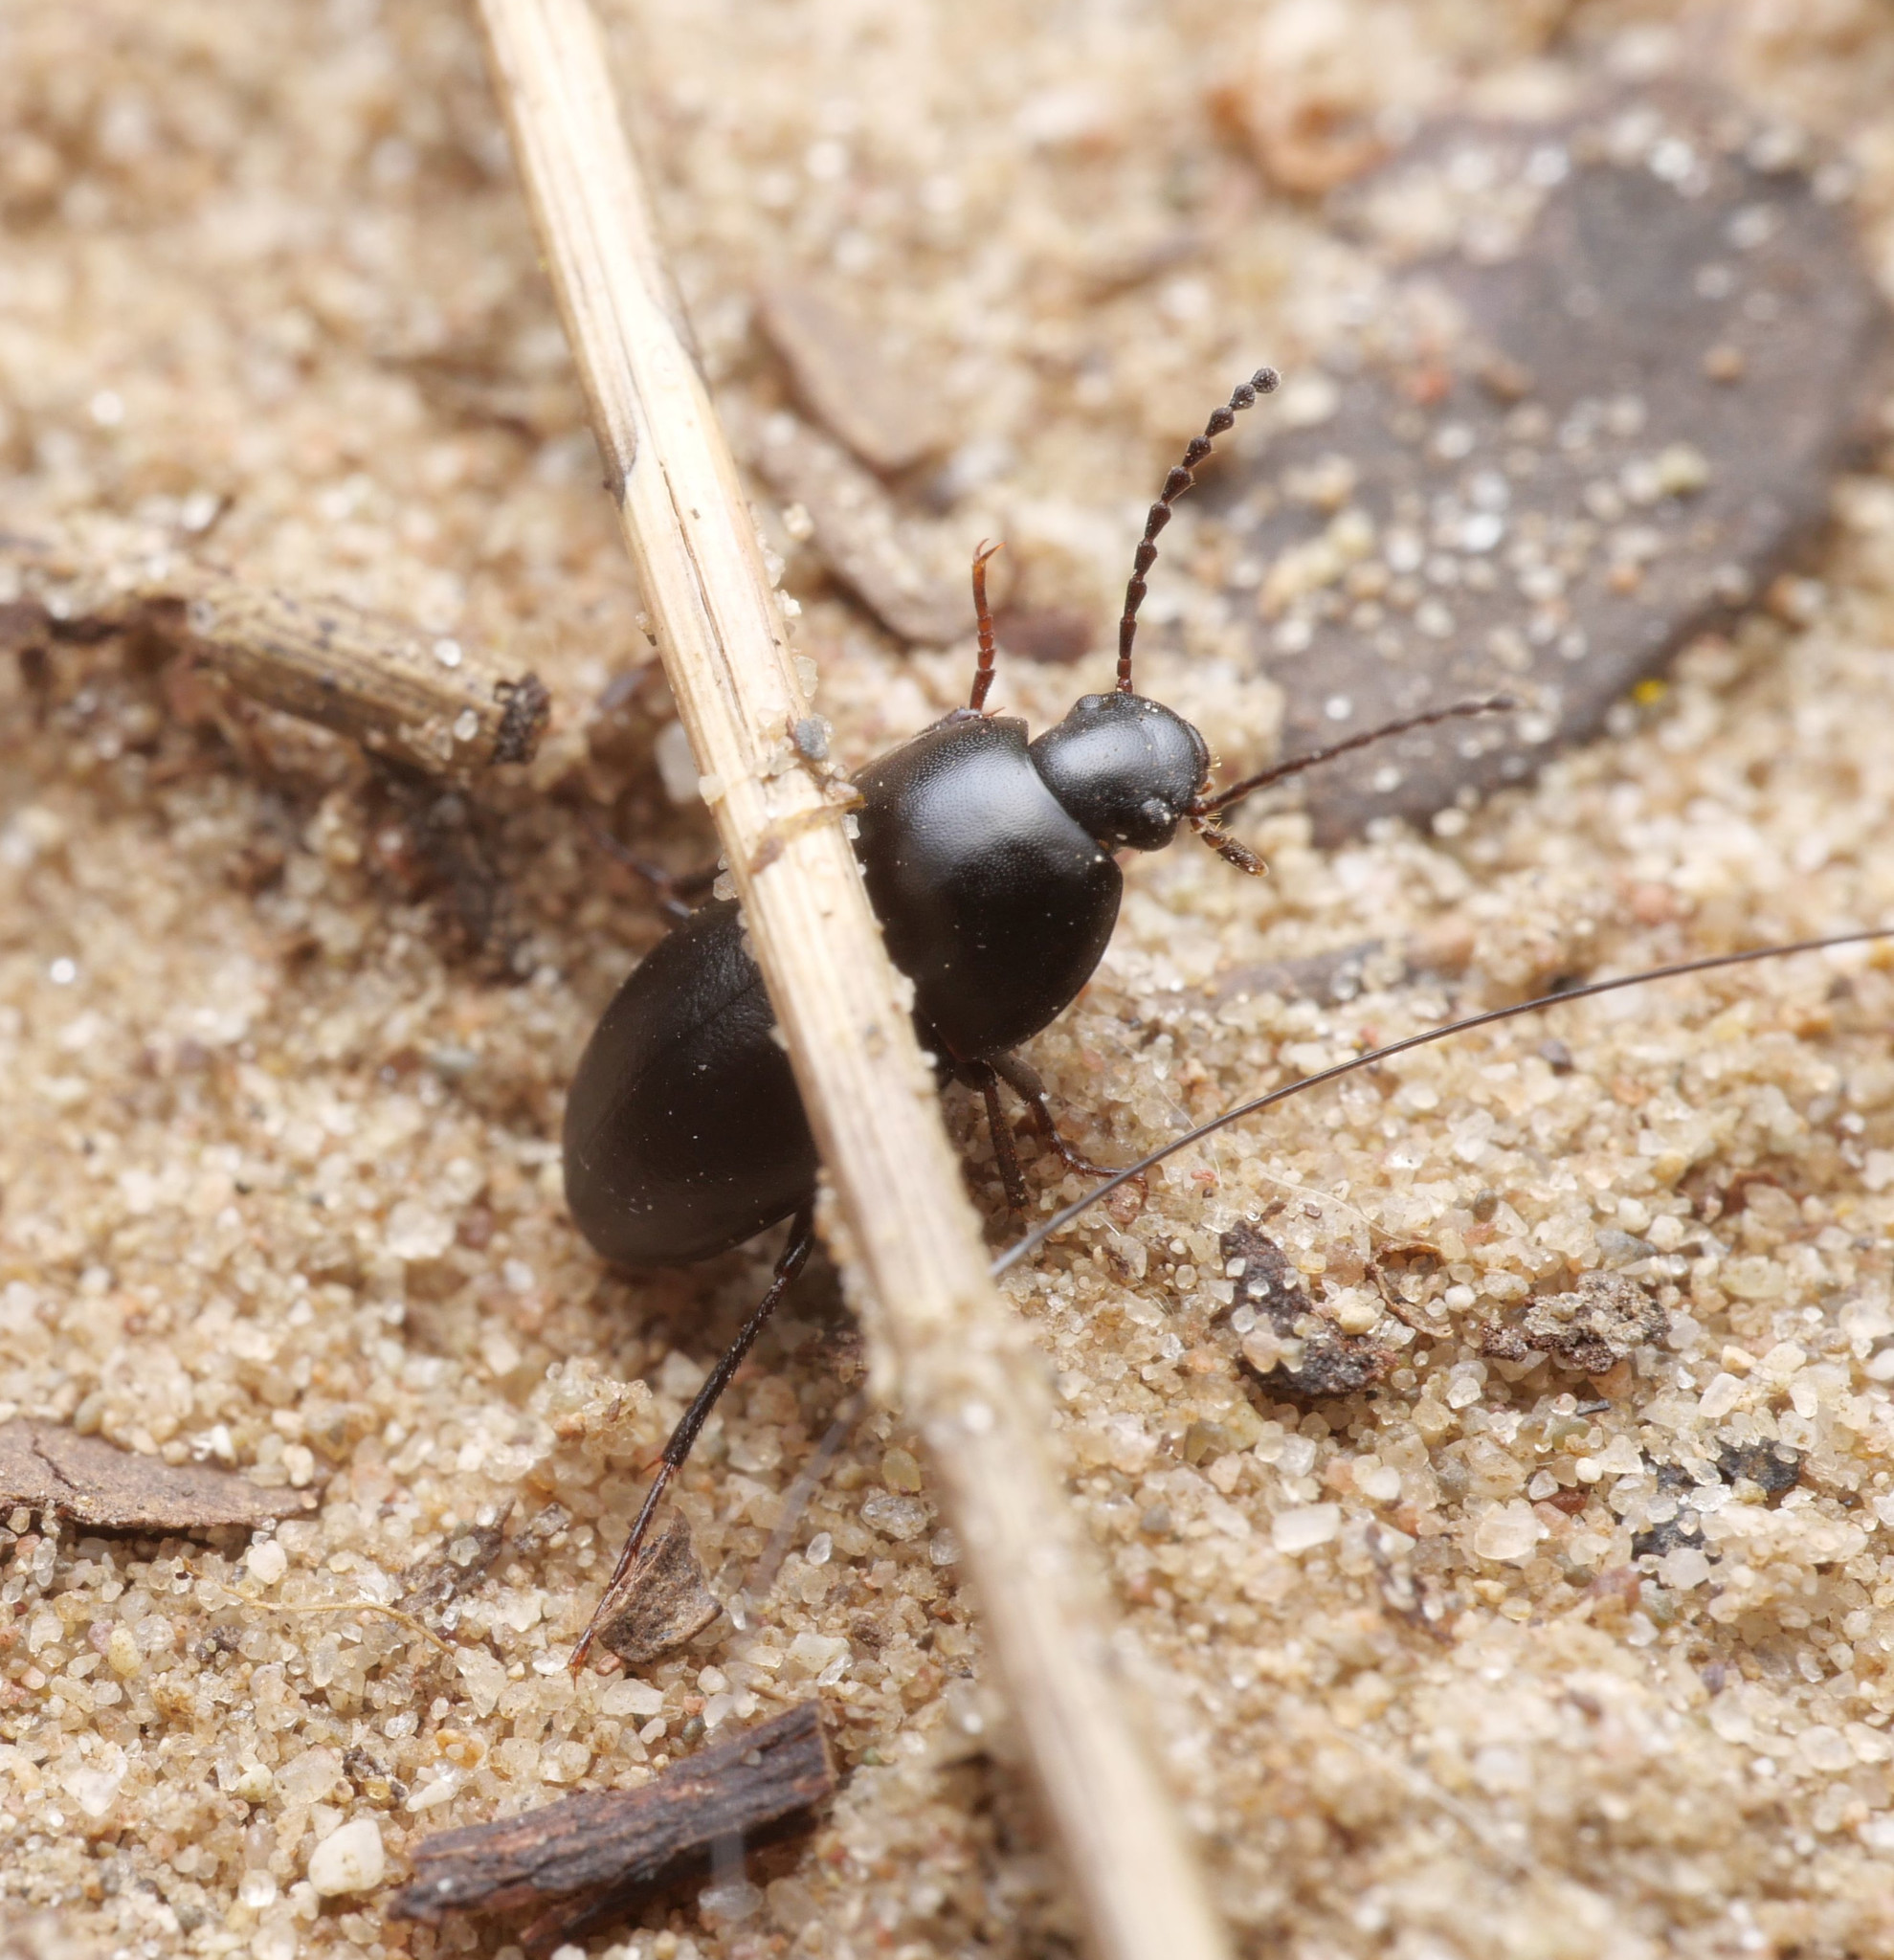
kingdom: Animalia
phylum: Arthropoda
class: Insecta
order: Coleoptera
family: Tenebrionidae
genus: Crypticus
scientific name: Crypticus quisquilius
